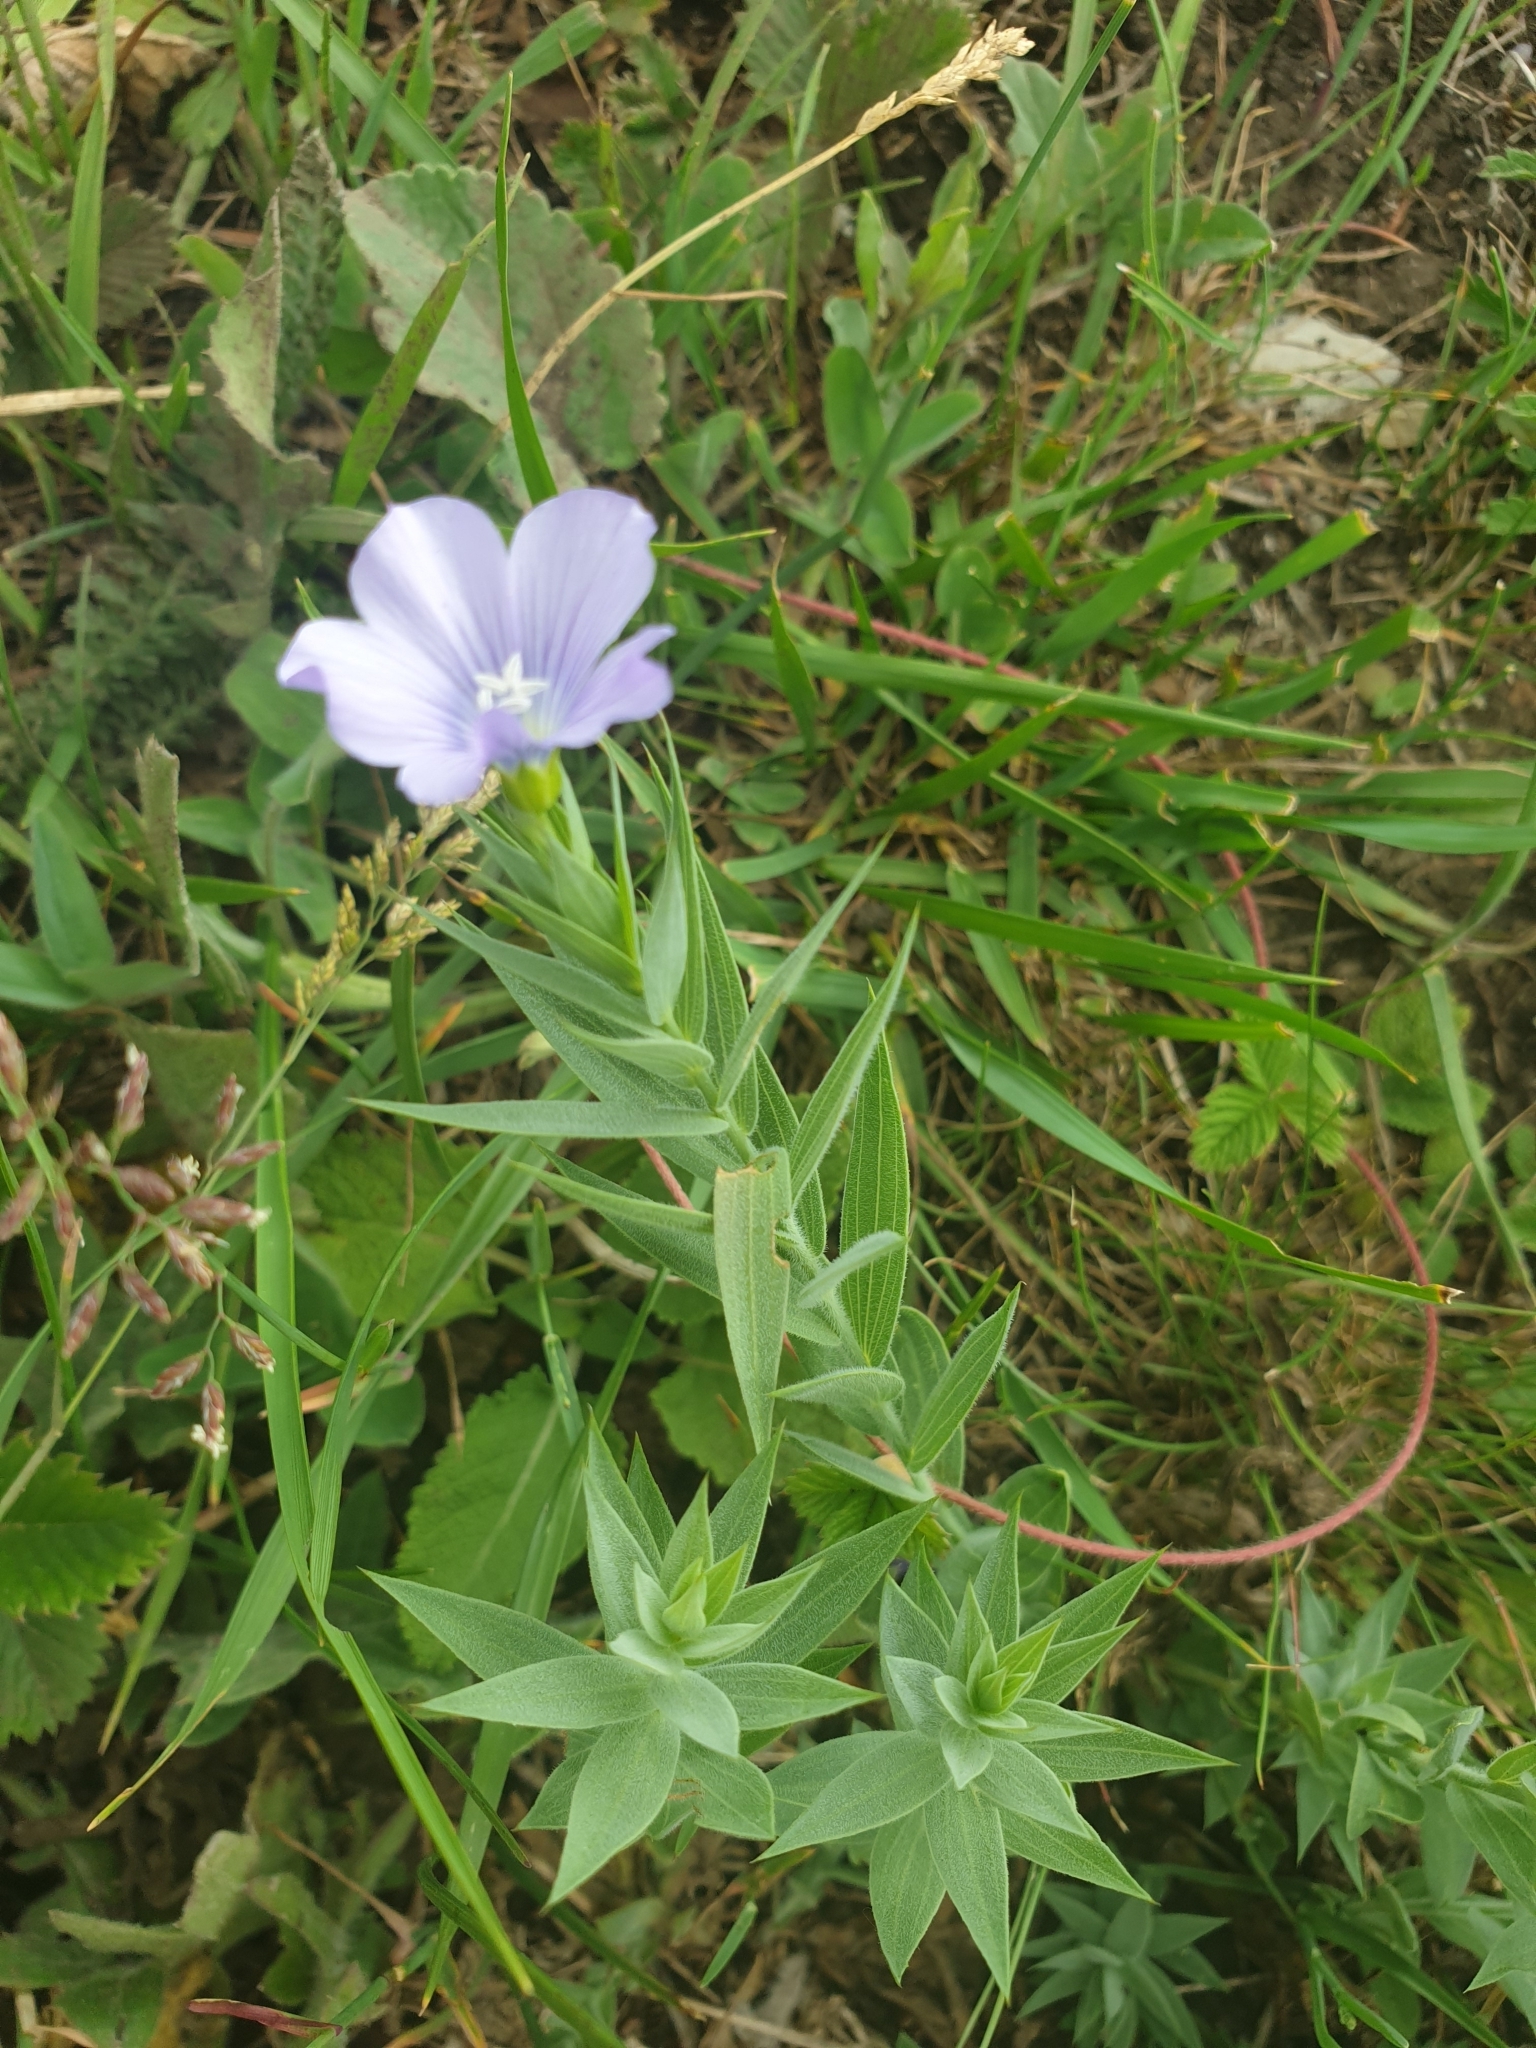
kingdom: Plantae
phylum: Tracheophyta
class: Magnoliopsida
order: Malpighiales
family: Linaceae
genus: Linum
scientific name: Linum nervosum
